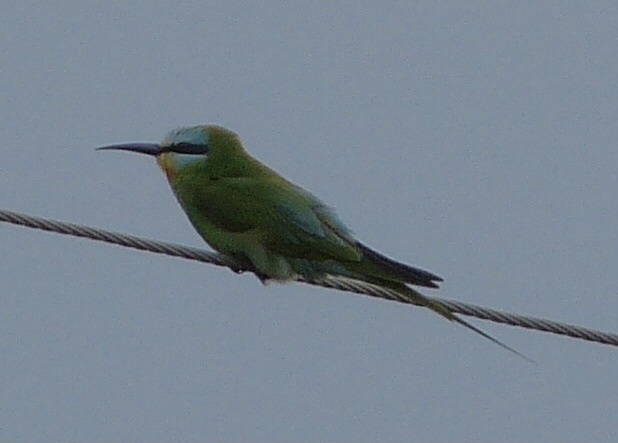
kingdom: Animalia
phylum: Chordata
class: Aves
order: Coraciiformes
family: Meropidae
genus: Merops
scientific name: Merops persicus
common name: Blue-cheeked bee-eater
